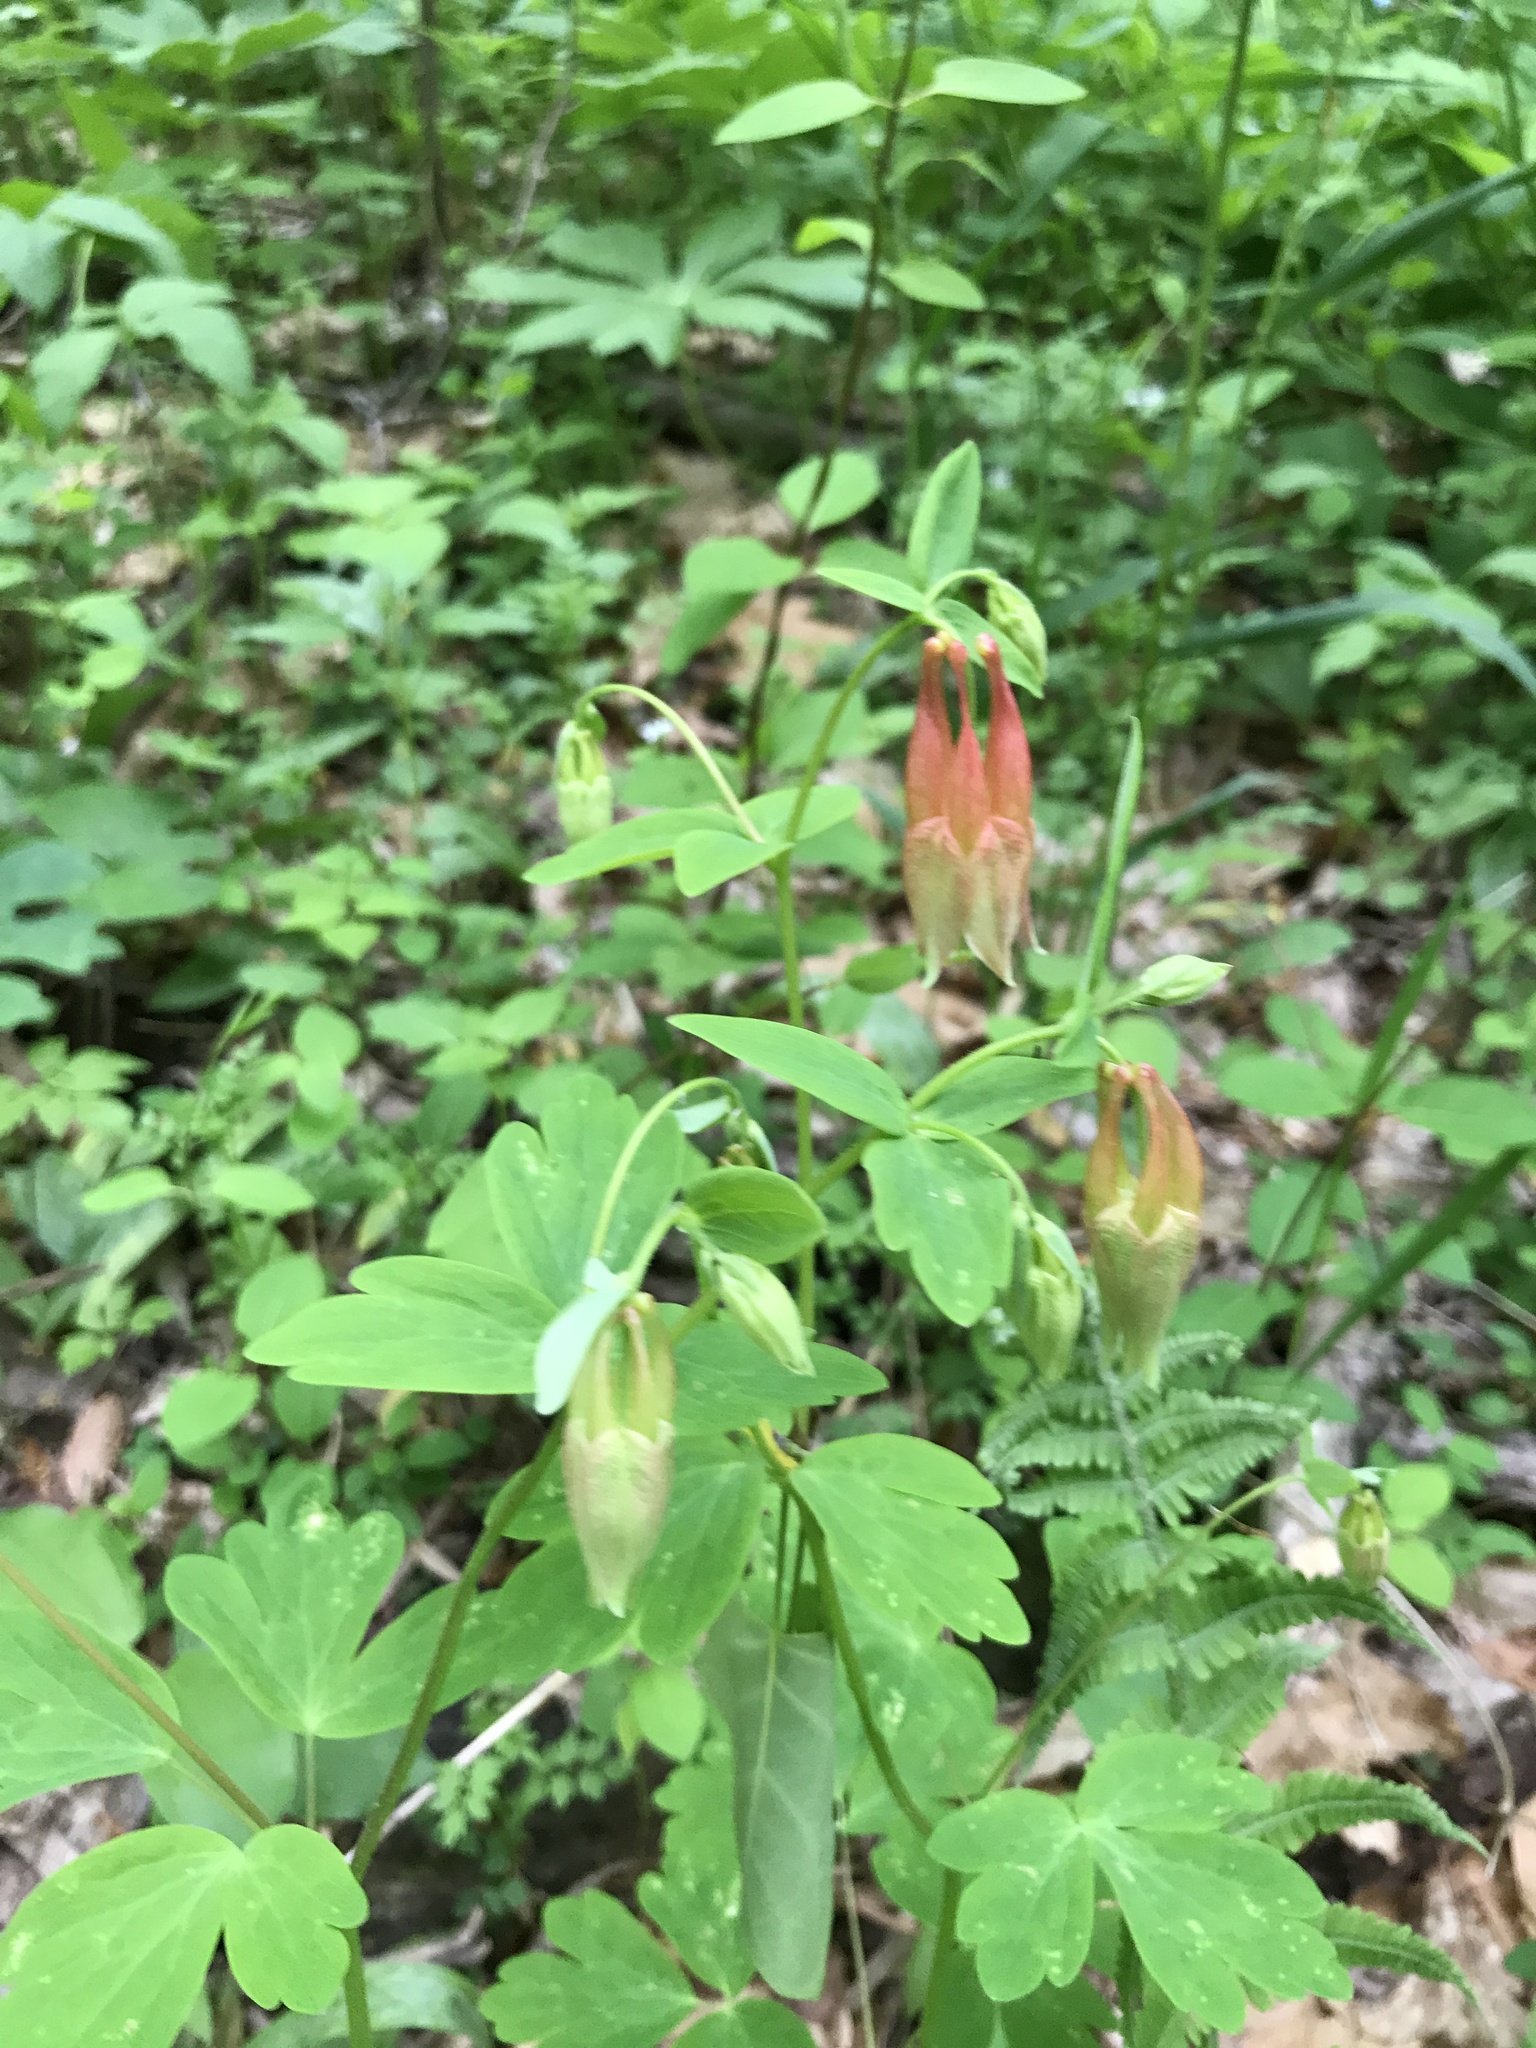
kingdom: Plantae
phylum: Tracheophyta
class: Magnoliopsida
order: Ranunculales
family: Ranunculaceae
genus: Aquilegia
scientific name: Aquilegia canadensis
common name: American columbine
